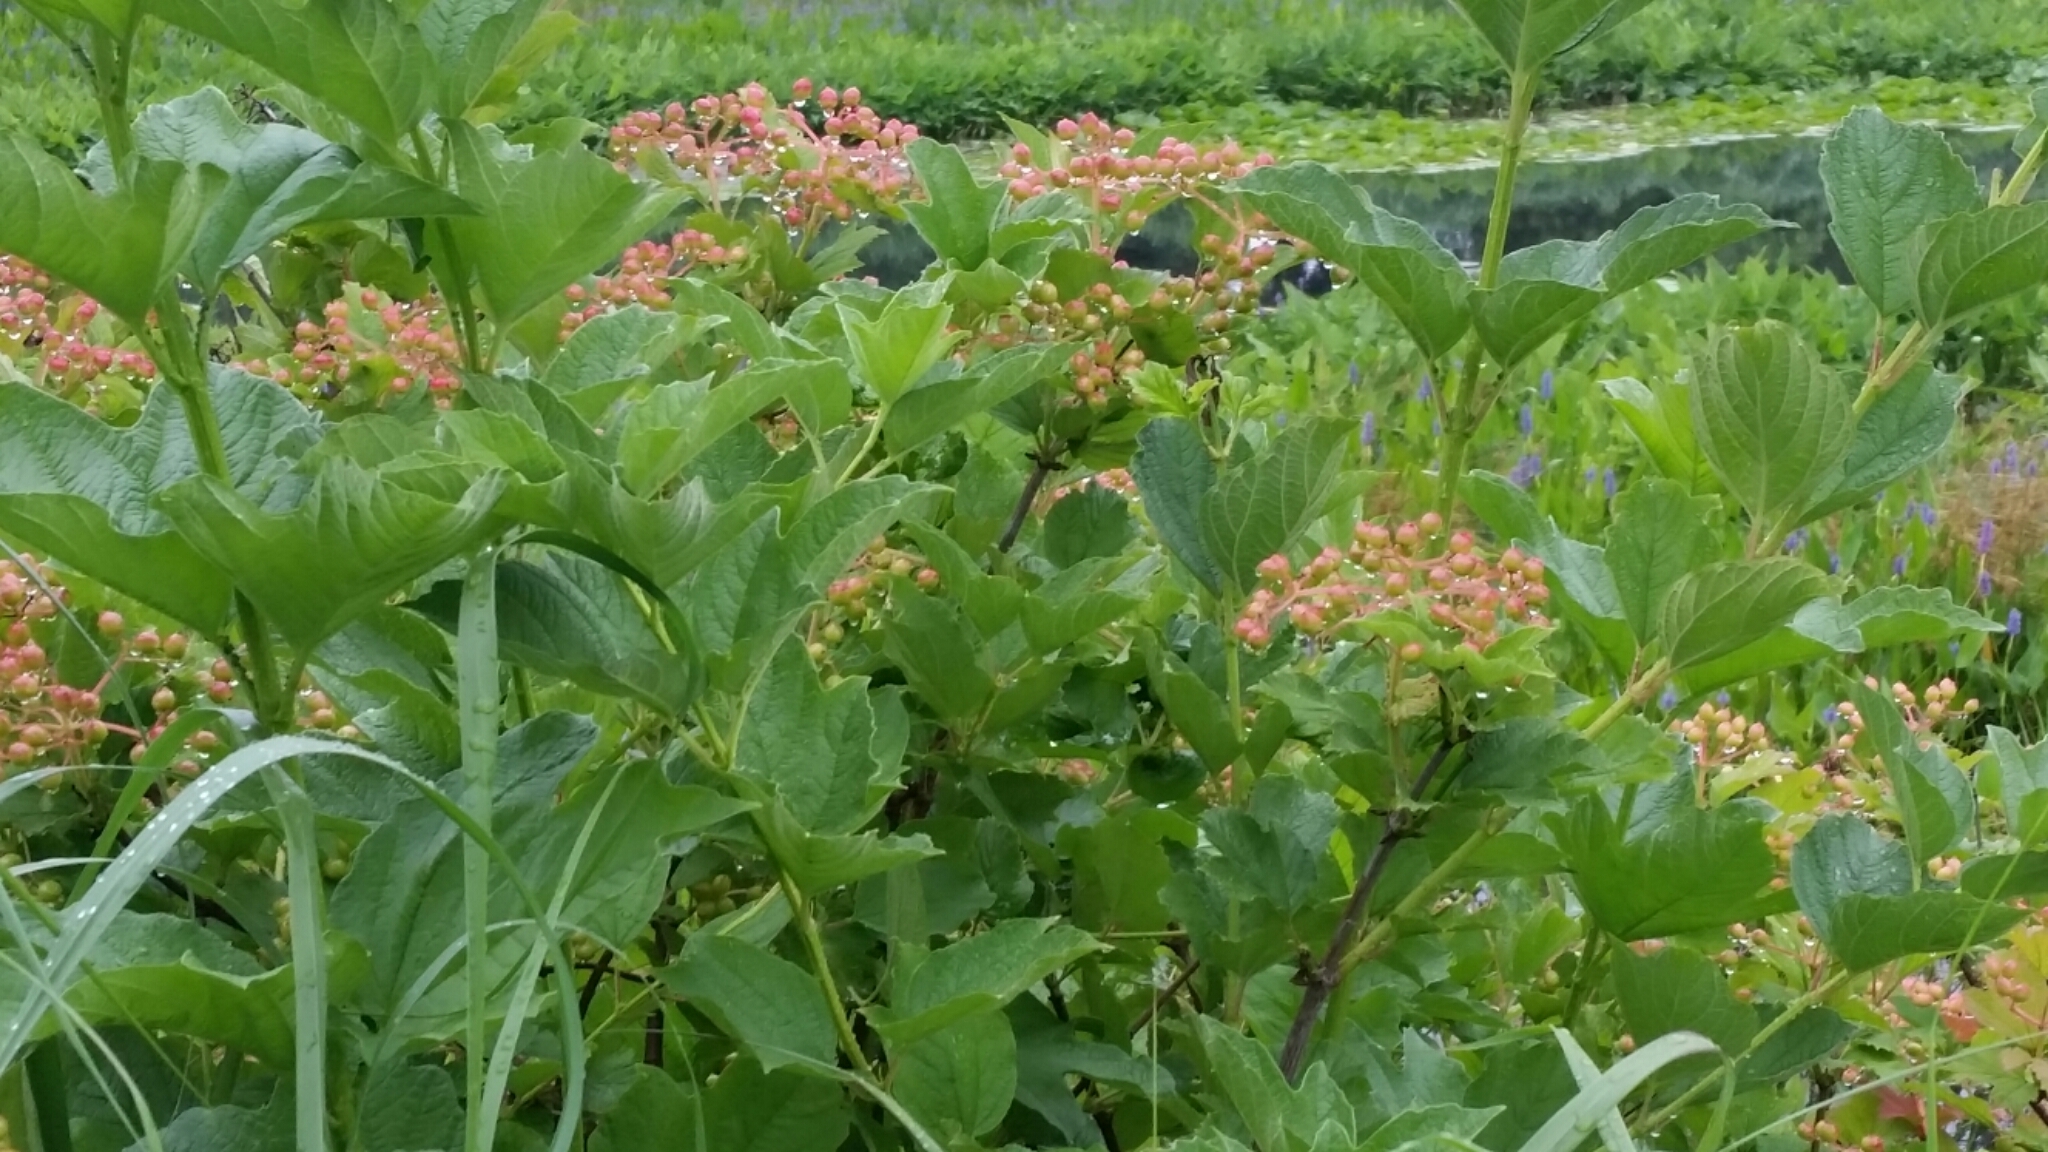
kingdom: Plantae
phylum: Tracheophyta
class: Magnoliopsida
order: Dipsacales
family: Viburnaceae
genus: Viburnum
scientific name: Viburnum opulus
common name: Guelder-rose
